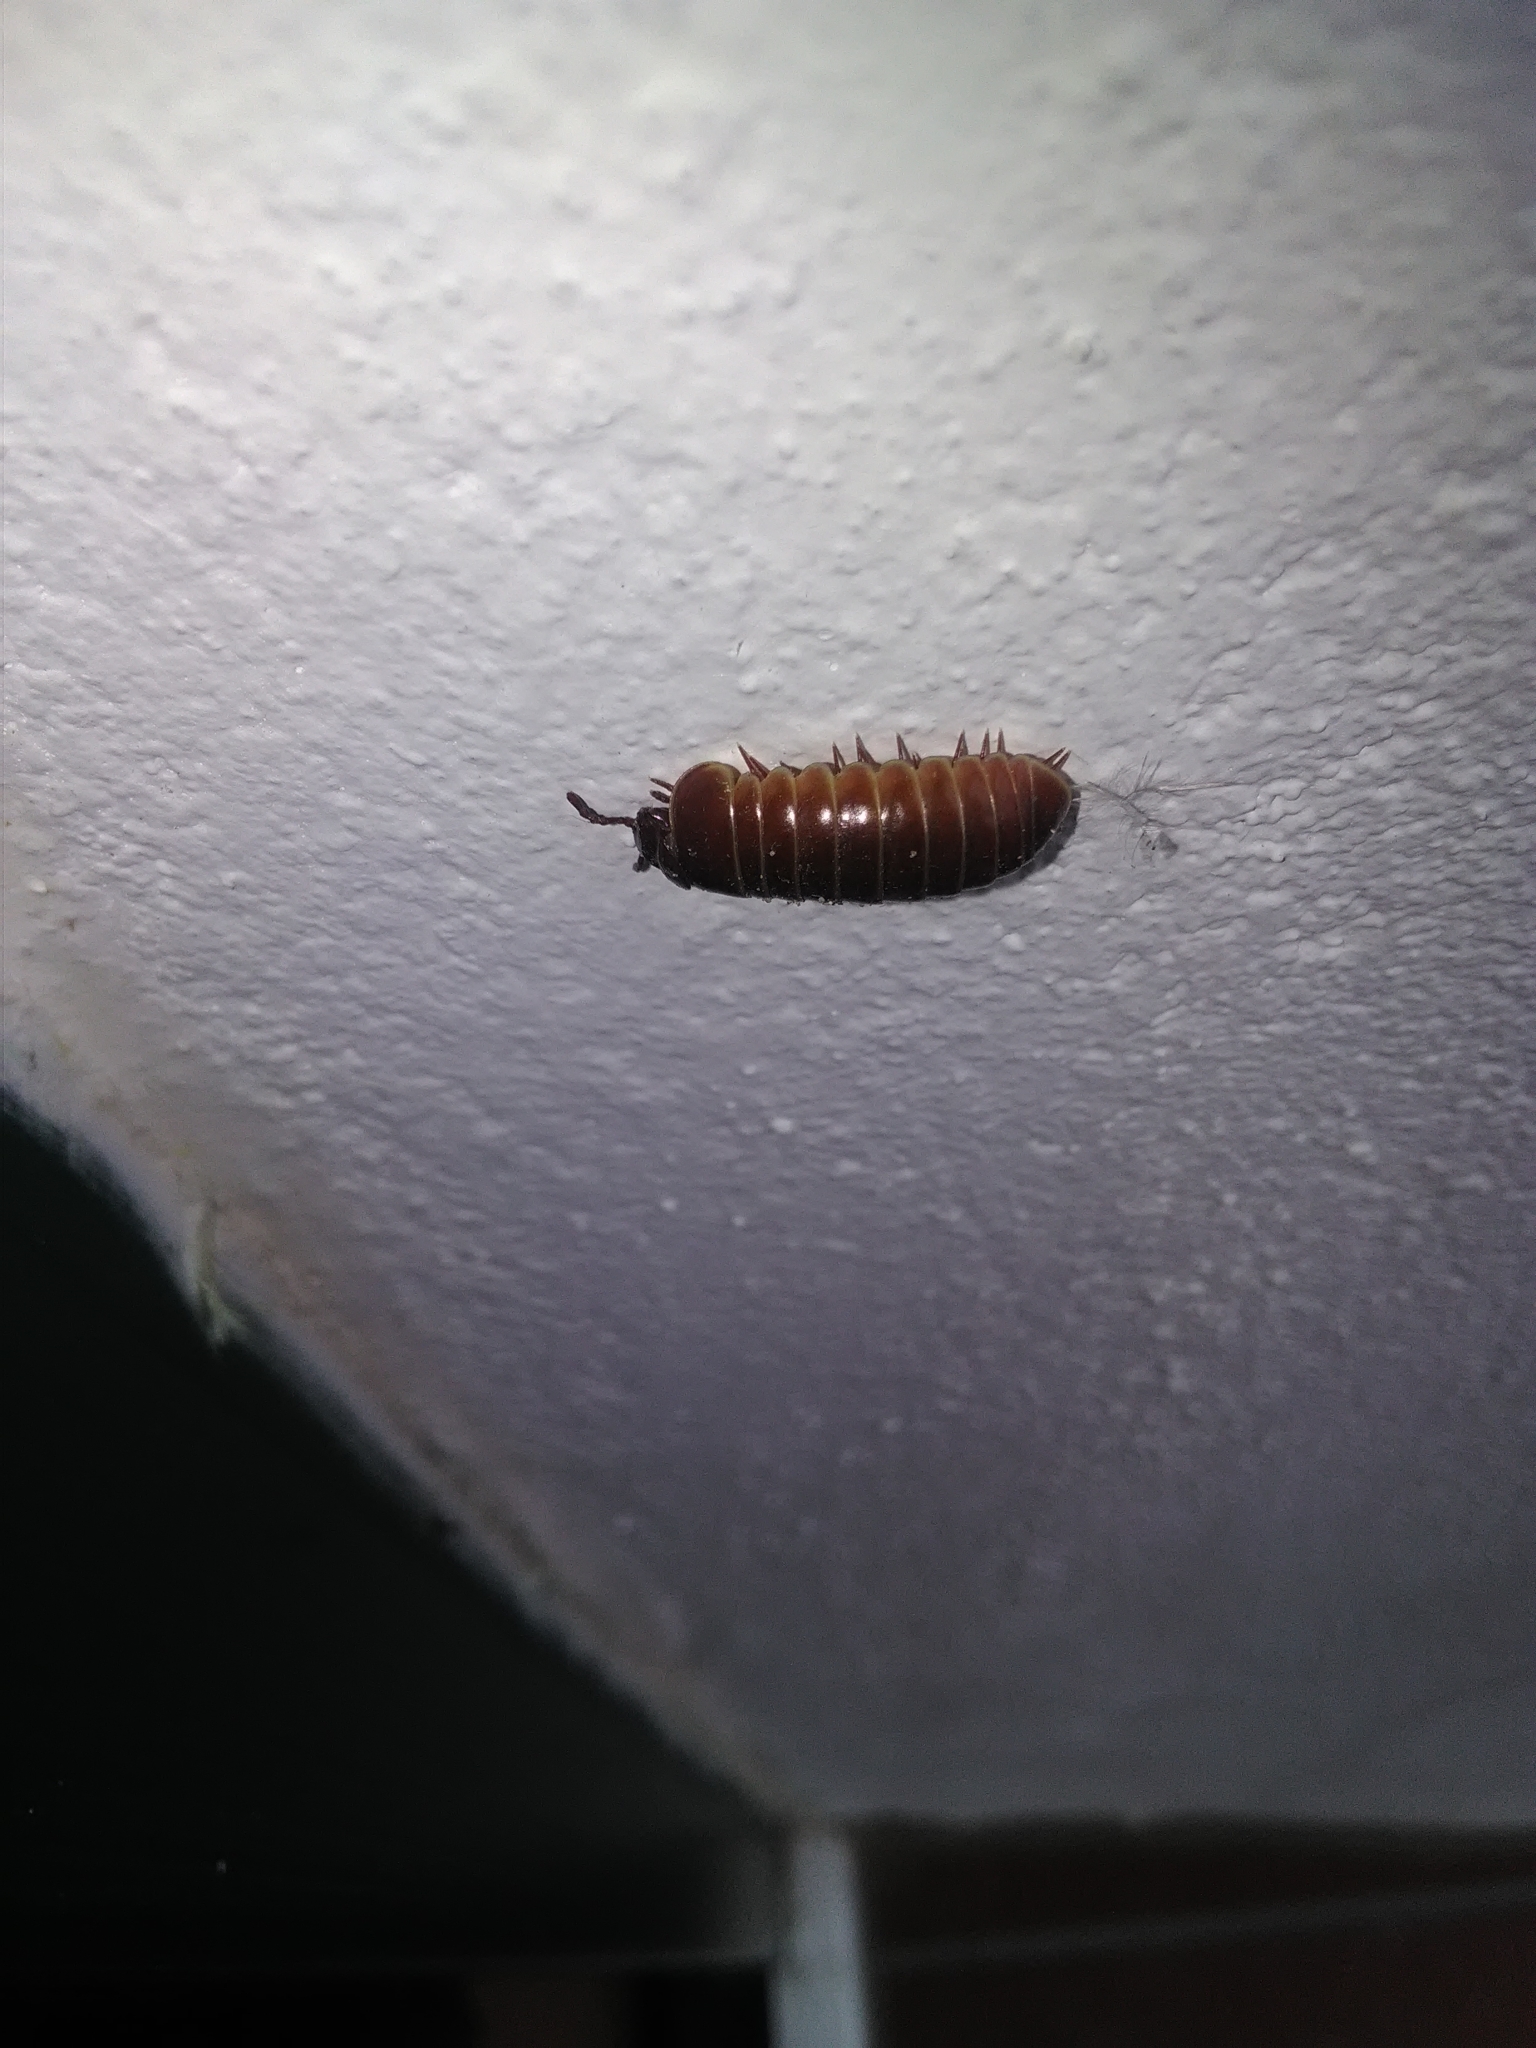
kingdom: Animalia
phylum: Arthropoda
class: Diplopoda
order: Glomerida
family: Glomeridae
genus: Glomeris
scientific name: Glomeris marginata
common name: Bordered pill millipede
